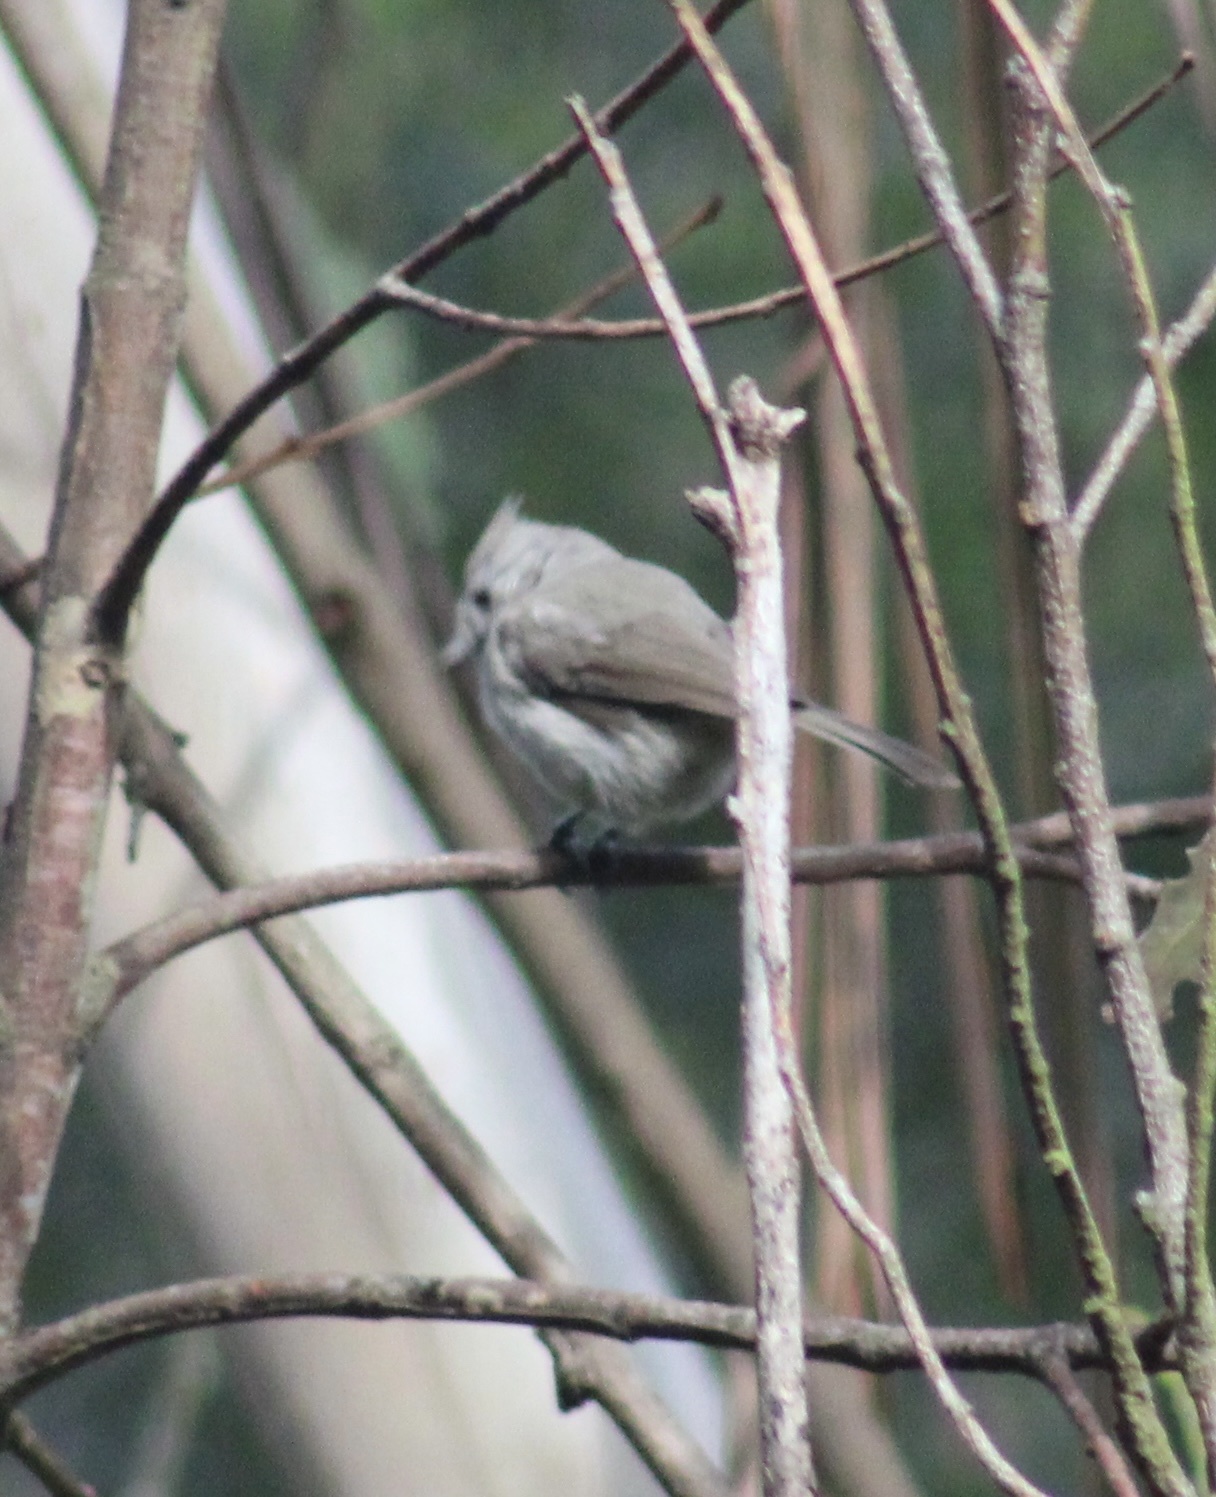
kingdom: Animalia
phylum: Chordata
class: Aves
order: Passeriformes
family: Paridae
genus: Baeolophus
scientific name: Baeolophus inornatus
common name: Oak titmouse
